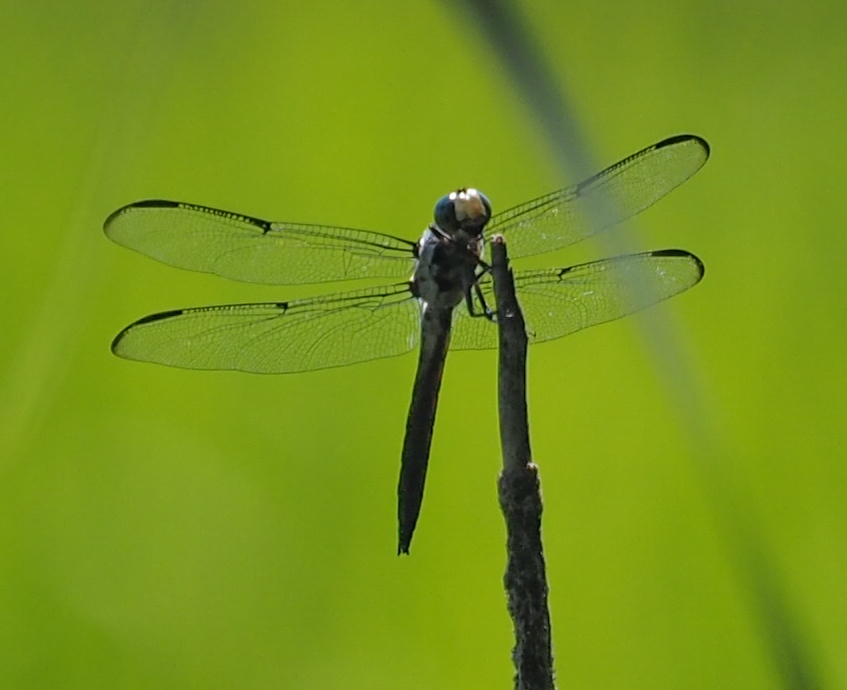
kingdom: Animalia
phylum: Arthropoda
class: Insecta
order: Odonata
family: Libellulidae
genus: Libellula
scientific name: Libellula vibrans
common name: Great blue skimmer
